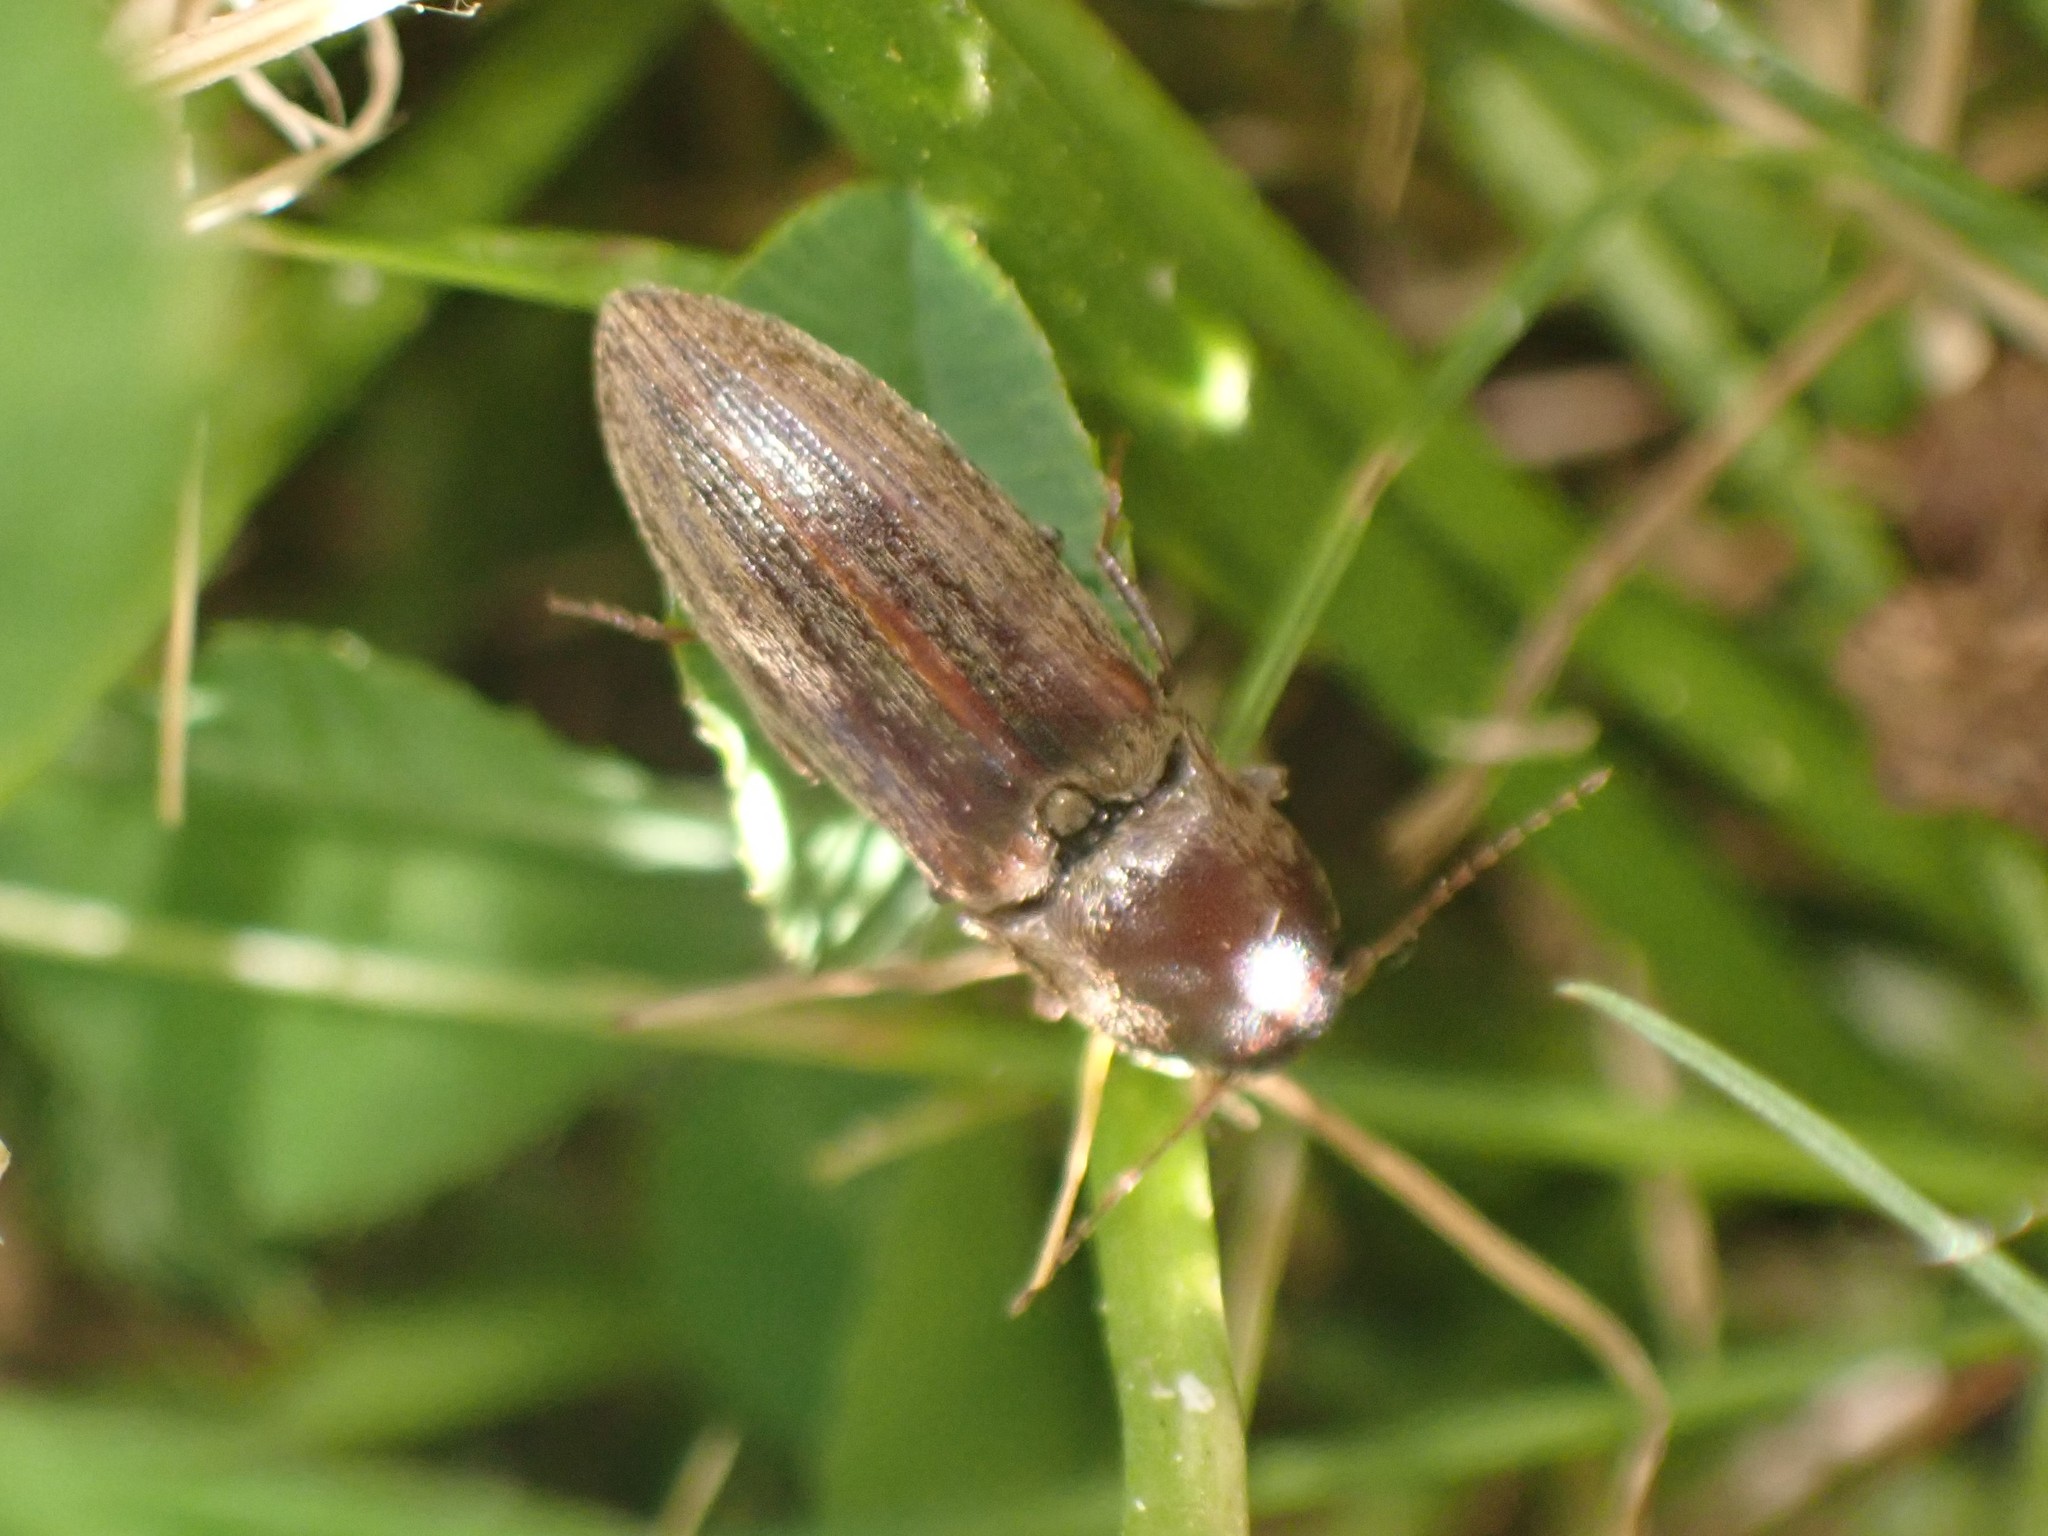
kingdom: Animalia
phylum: Arthropoda
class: Insecta
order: Coleoptera
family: Elateridae
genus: Agriotes
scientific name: Agriotes lineatus
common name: Lined click beetle
